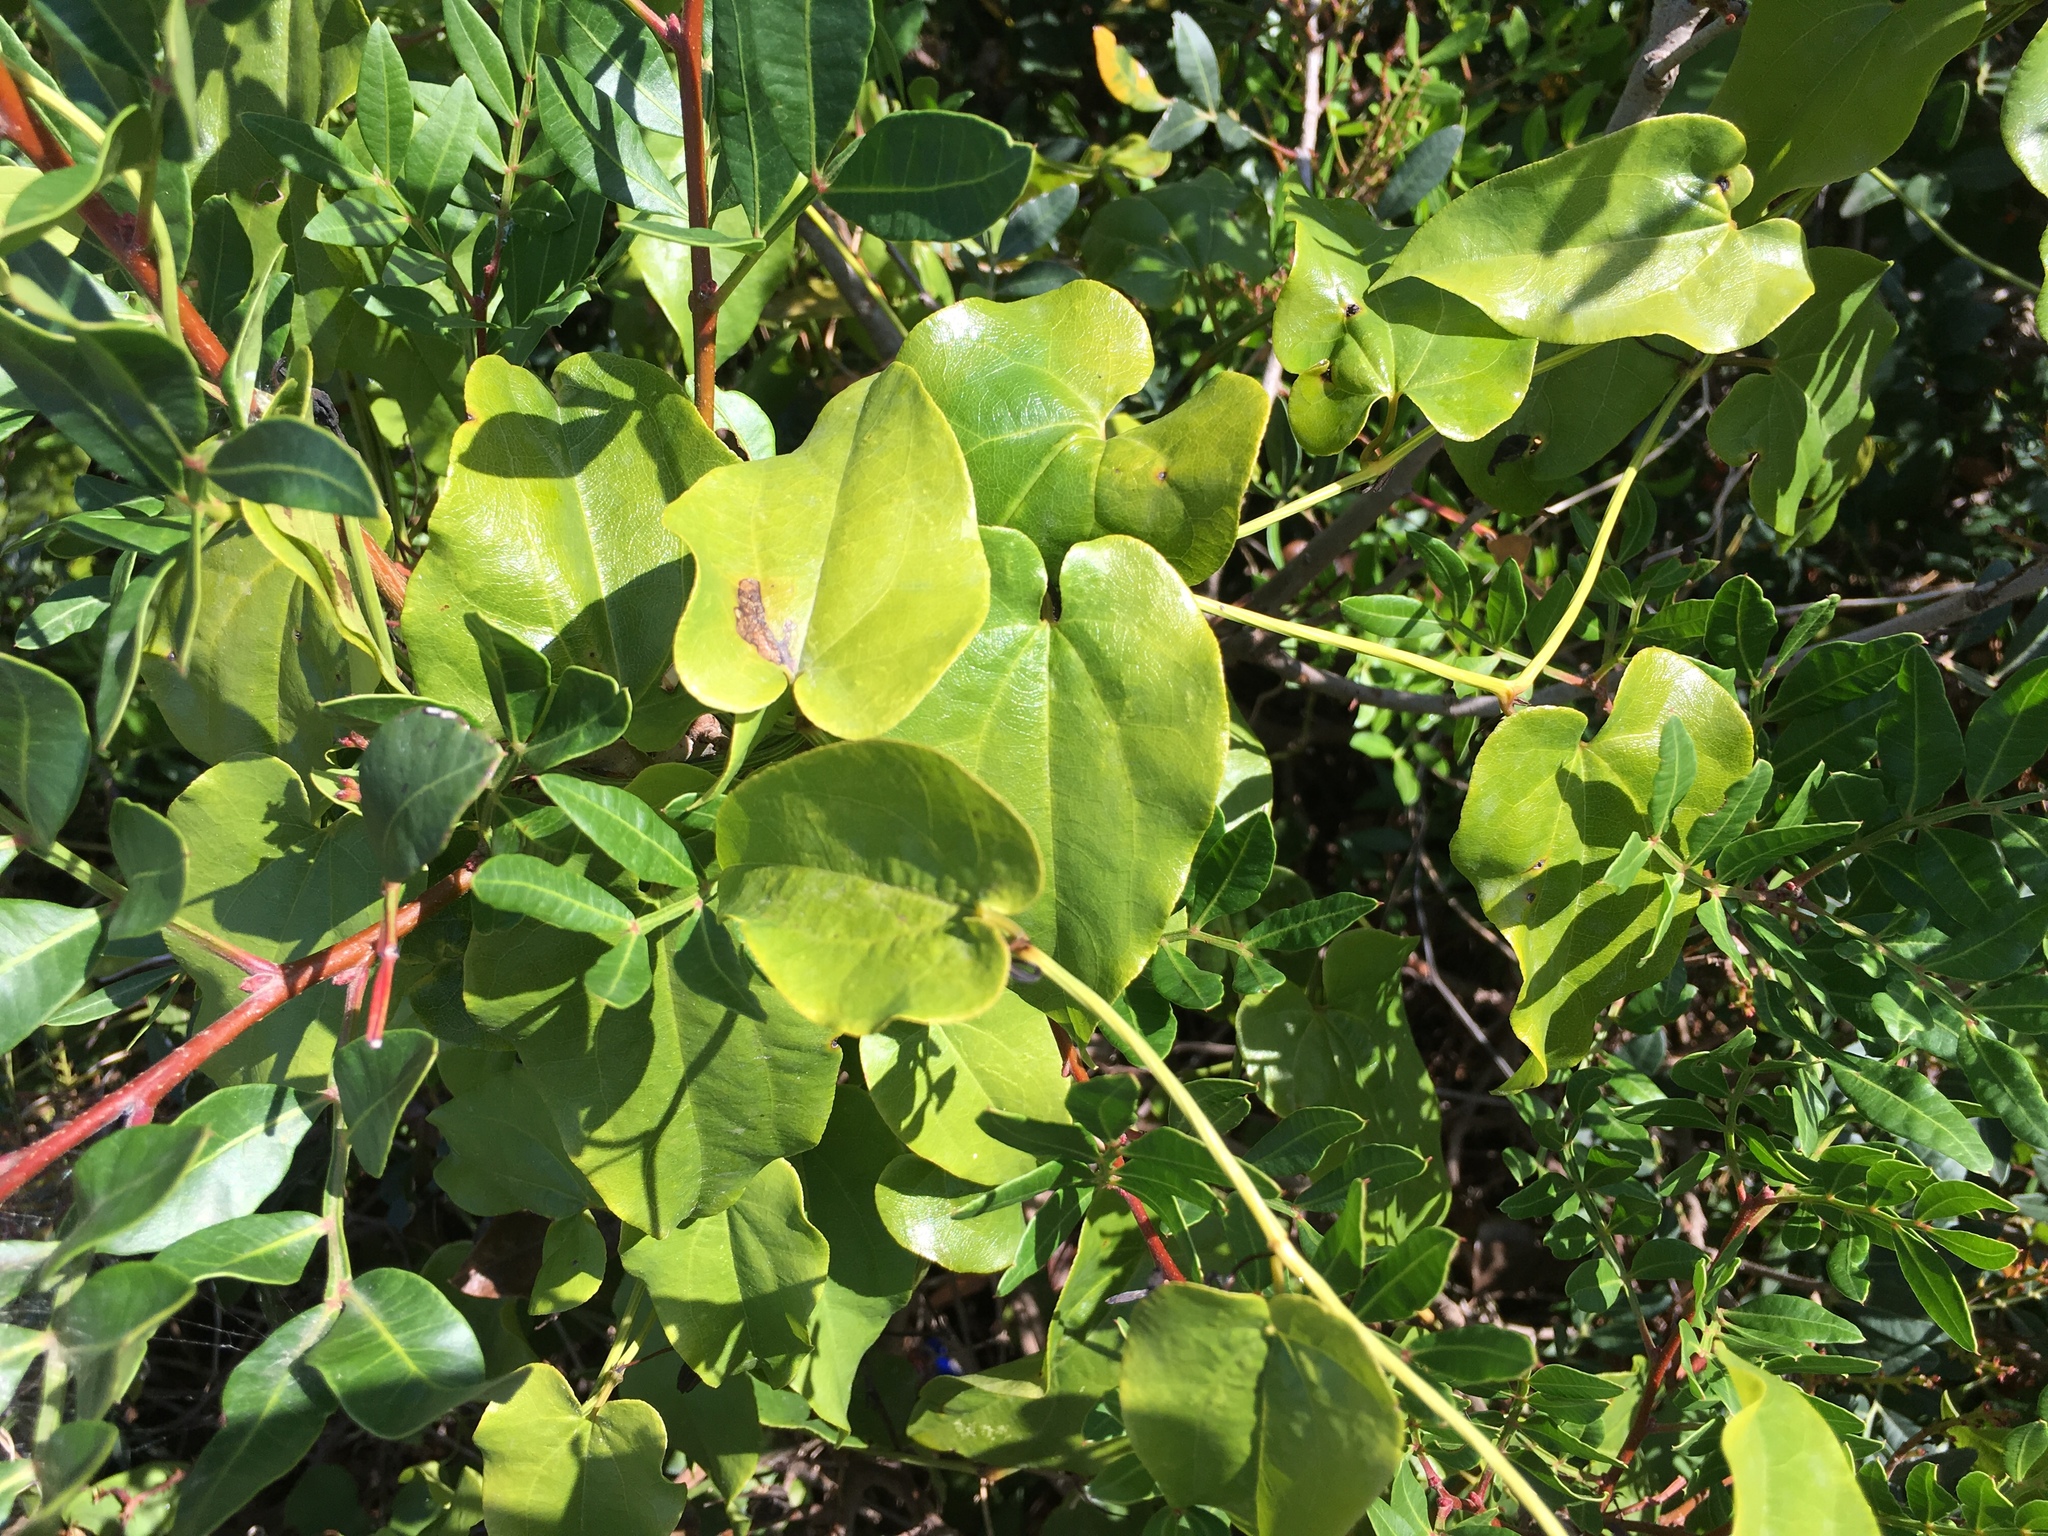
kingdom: Plantae
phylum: Tracheophyta
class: Liliopsida
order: Liliales
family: Smilacaceae
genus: Smilax
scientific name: Smilax aspera
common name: Common smilax
